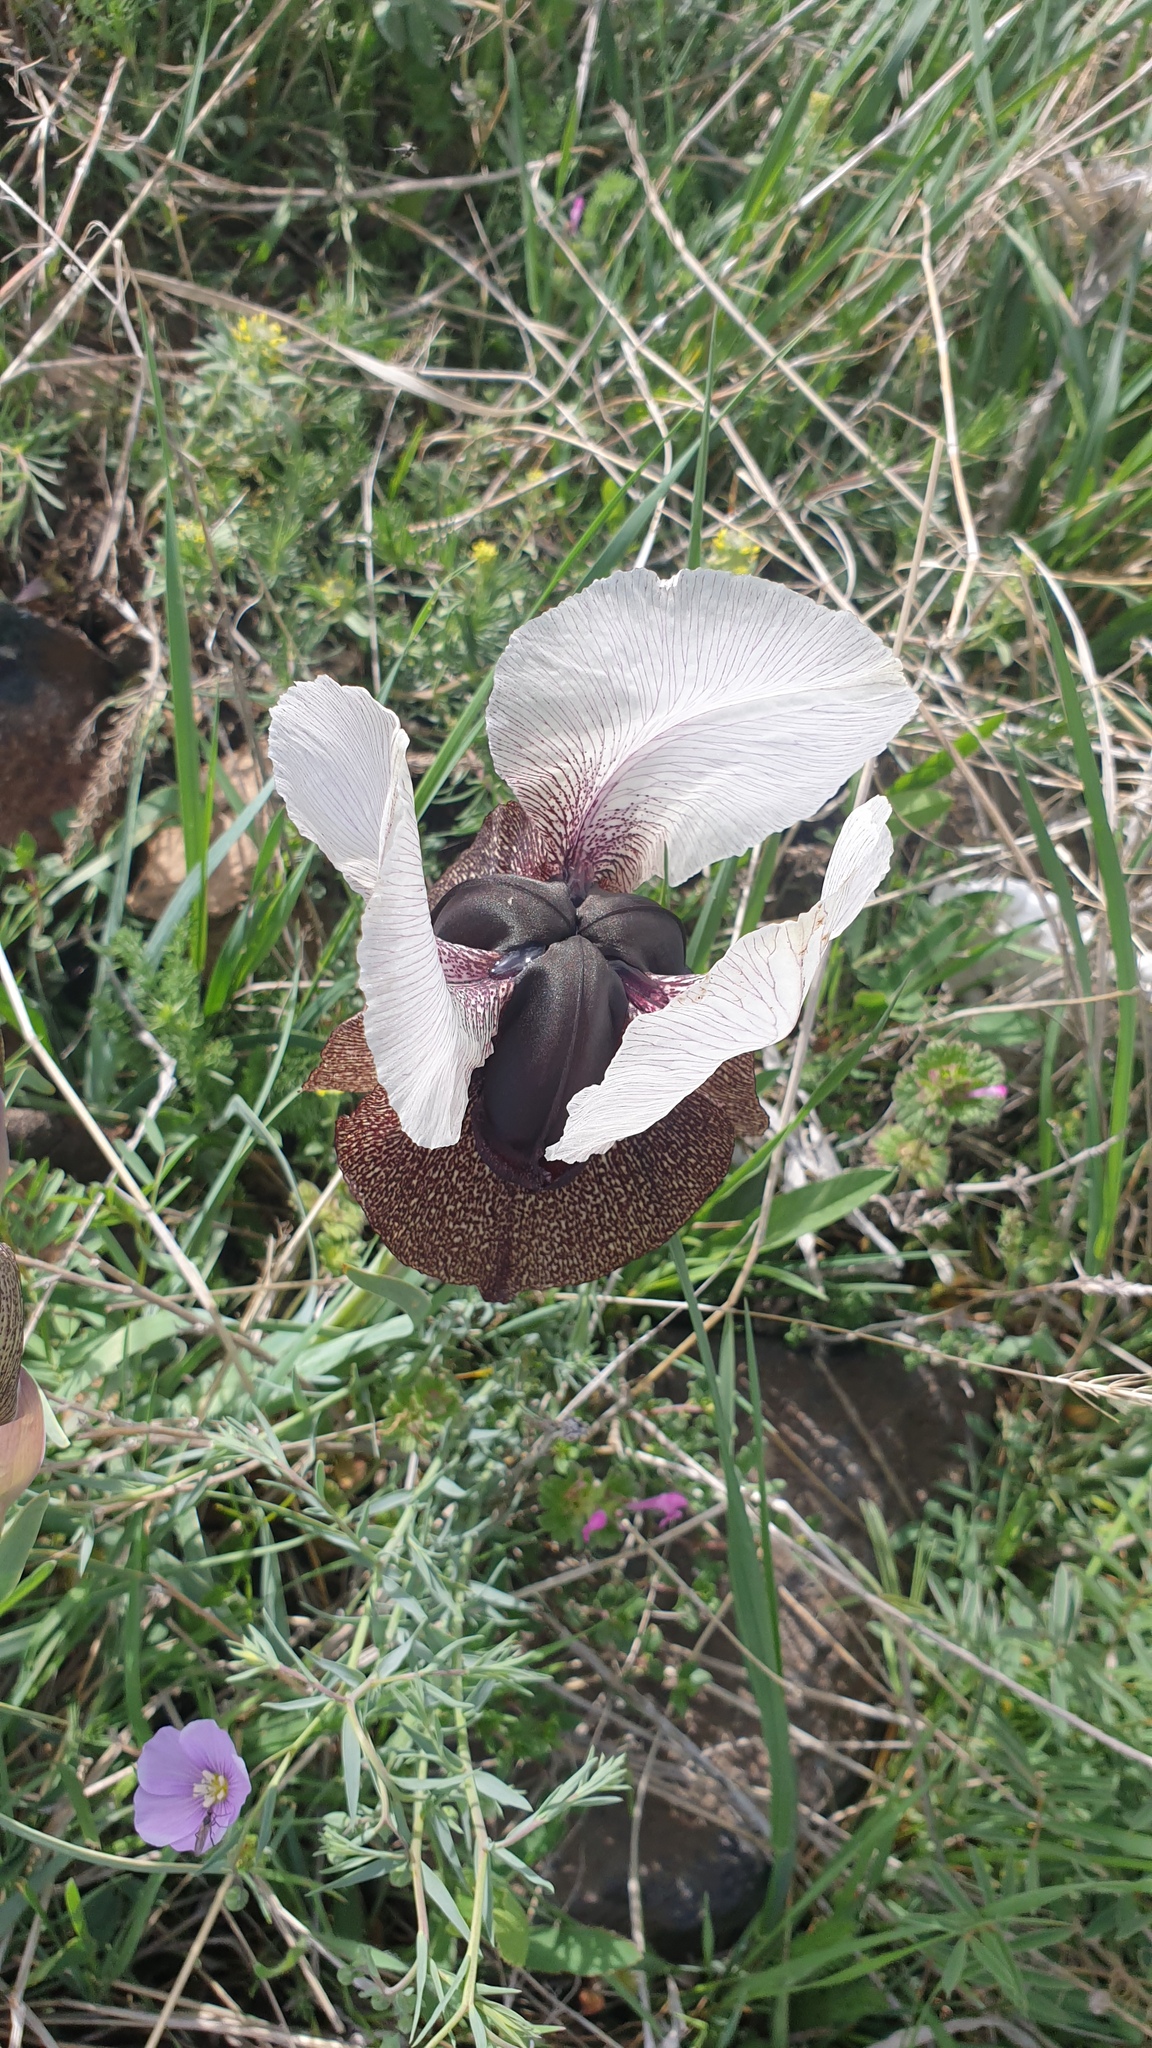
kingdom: Plantae
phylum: Tracheophyta
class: Liliopsida
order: Asparagales
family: Iridaceae
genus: Iris
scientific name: Iris iberica
